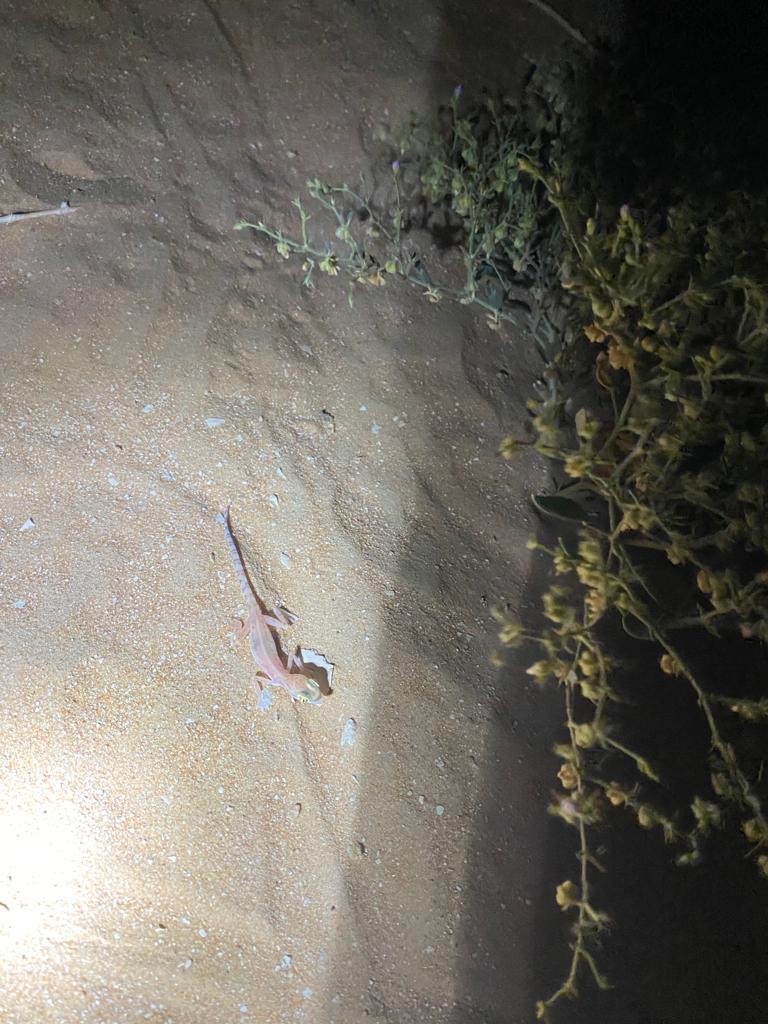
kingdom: Animalia
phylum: Chordata
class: Squamata
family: Gekkonidae
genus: Trigonodactylus
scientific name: Trigonodactylus arabicus
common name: Arabian sand gecko
